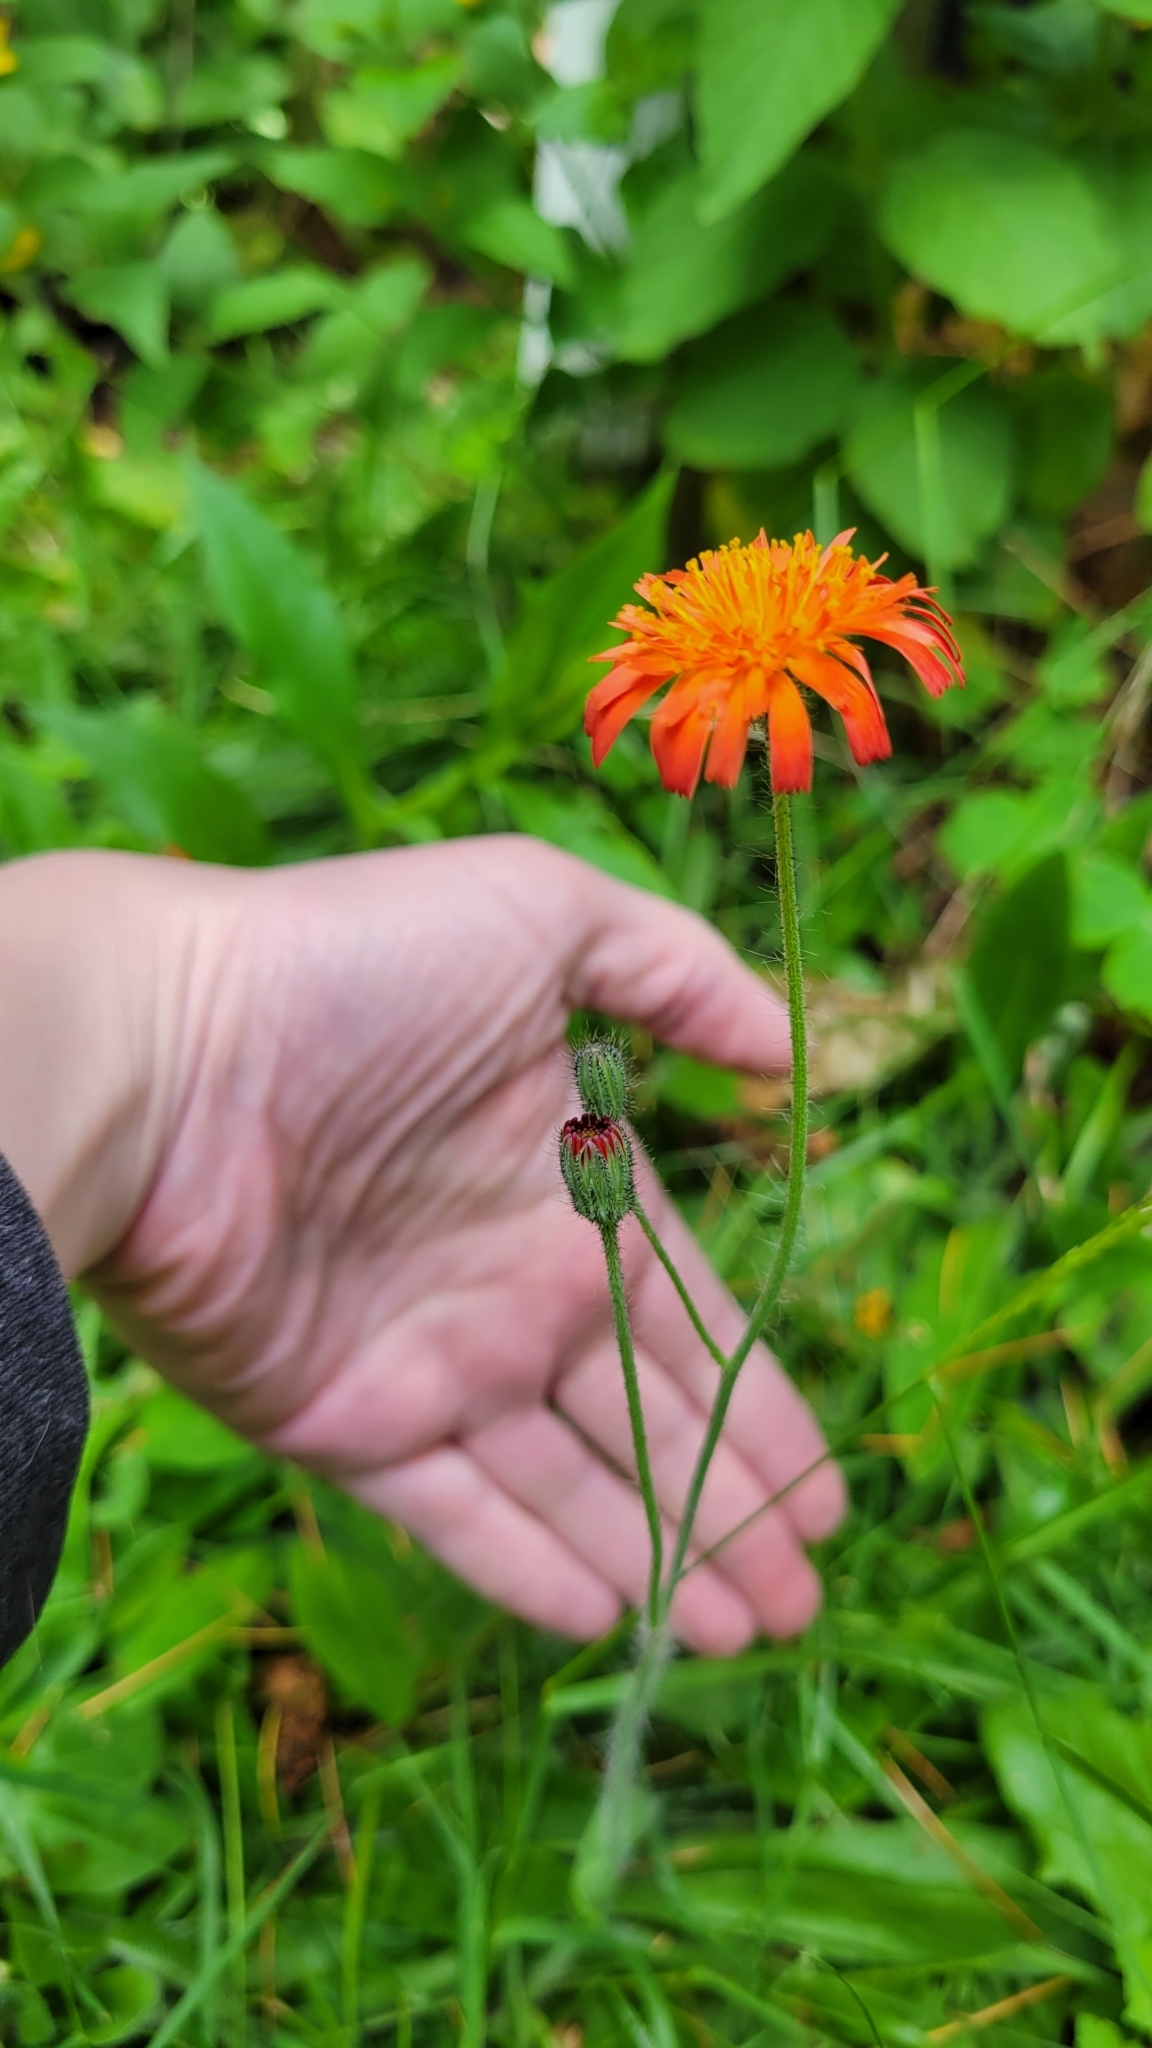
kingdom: Plantae
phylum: Tracheophyta
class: Magnoliopsida
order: Asterales
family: Asteraceae
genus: Pilosella
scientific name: Pilosella aurantiaca
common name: Fox-and-cubs
